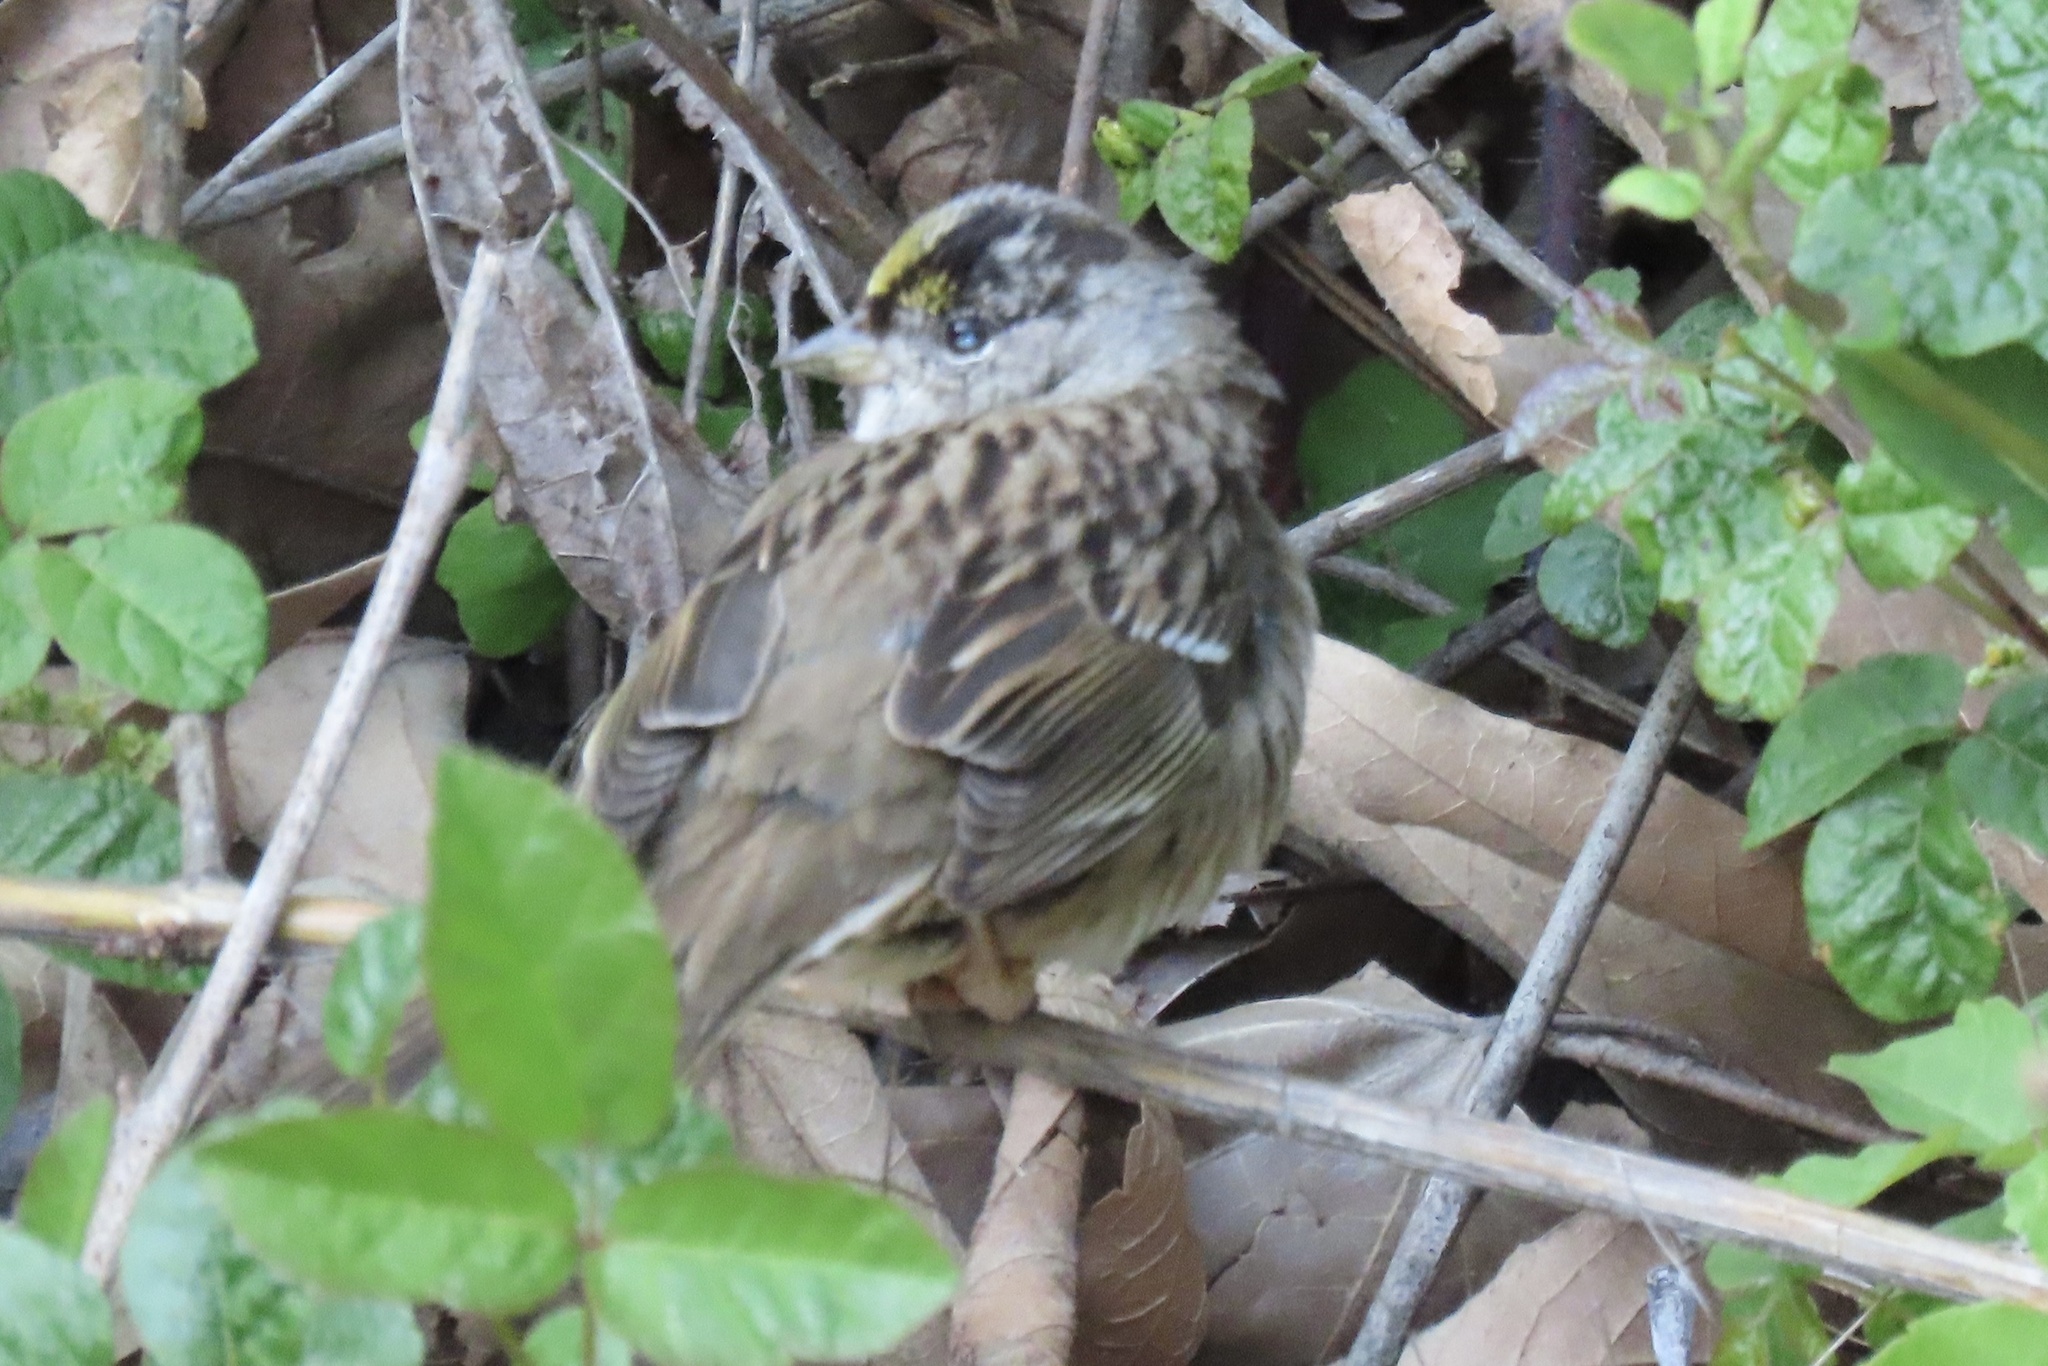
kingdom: Animalia
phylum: Chordata
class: Aves
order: Passeriformes
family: Passerellidae
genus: Zonotrichia
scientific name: Zonotrichia atricapilla
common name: Golden-crowned sparrow
